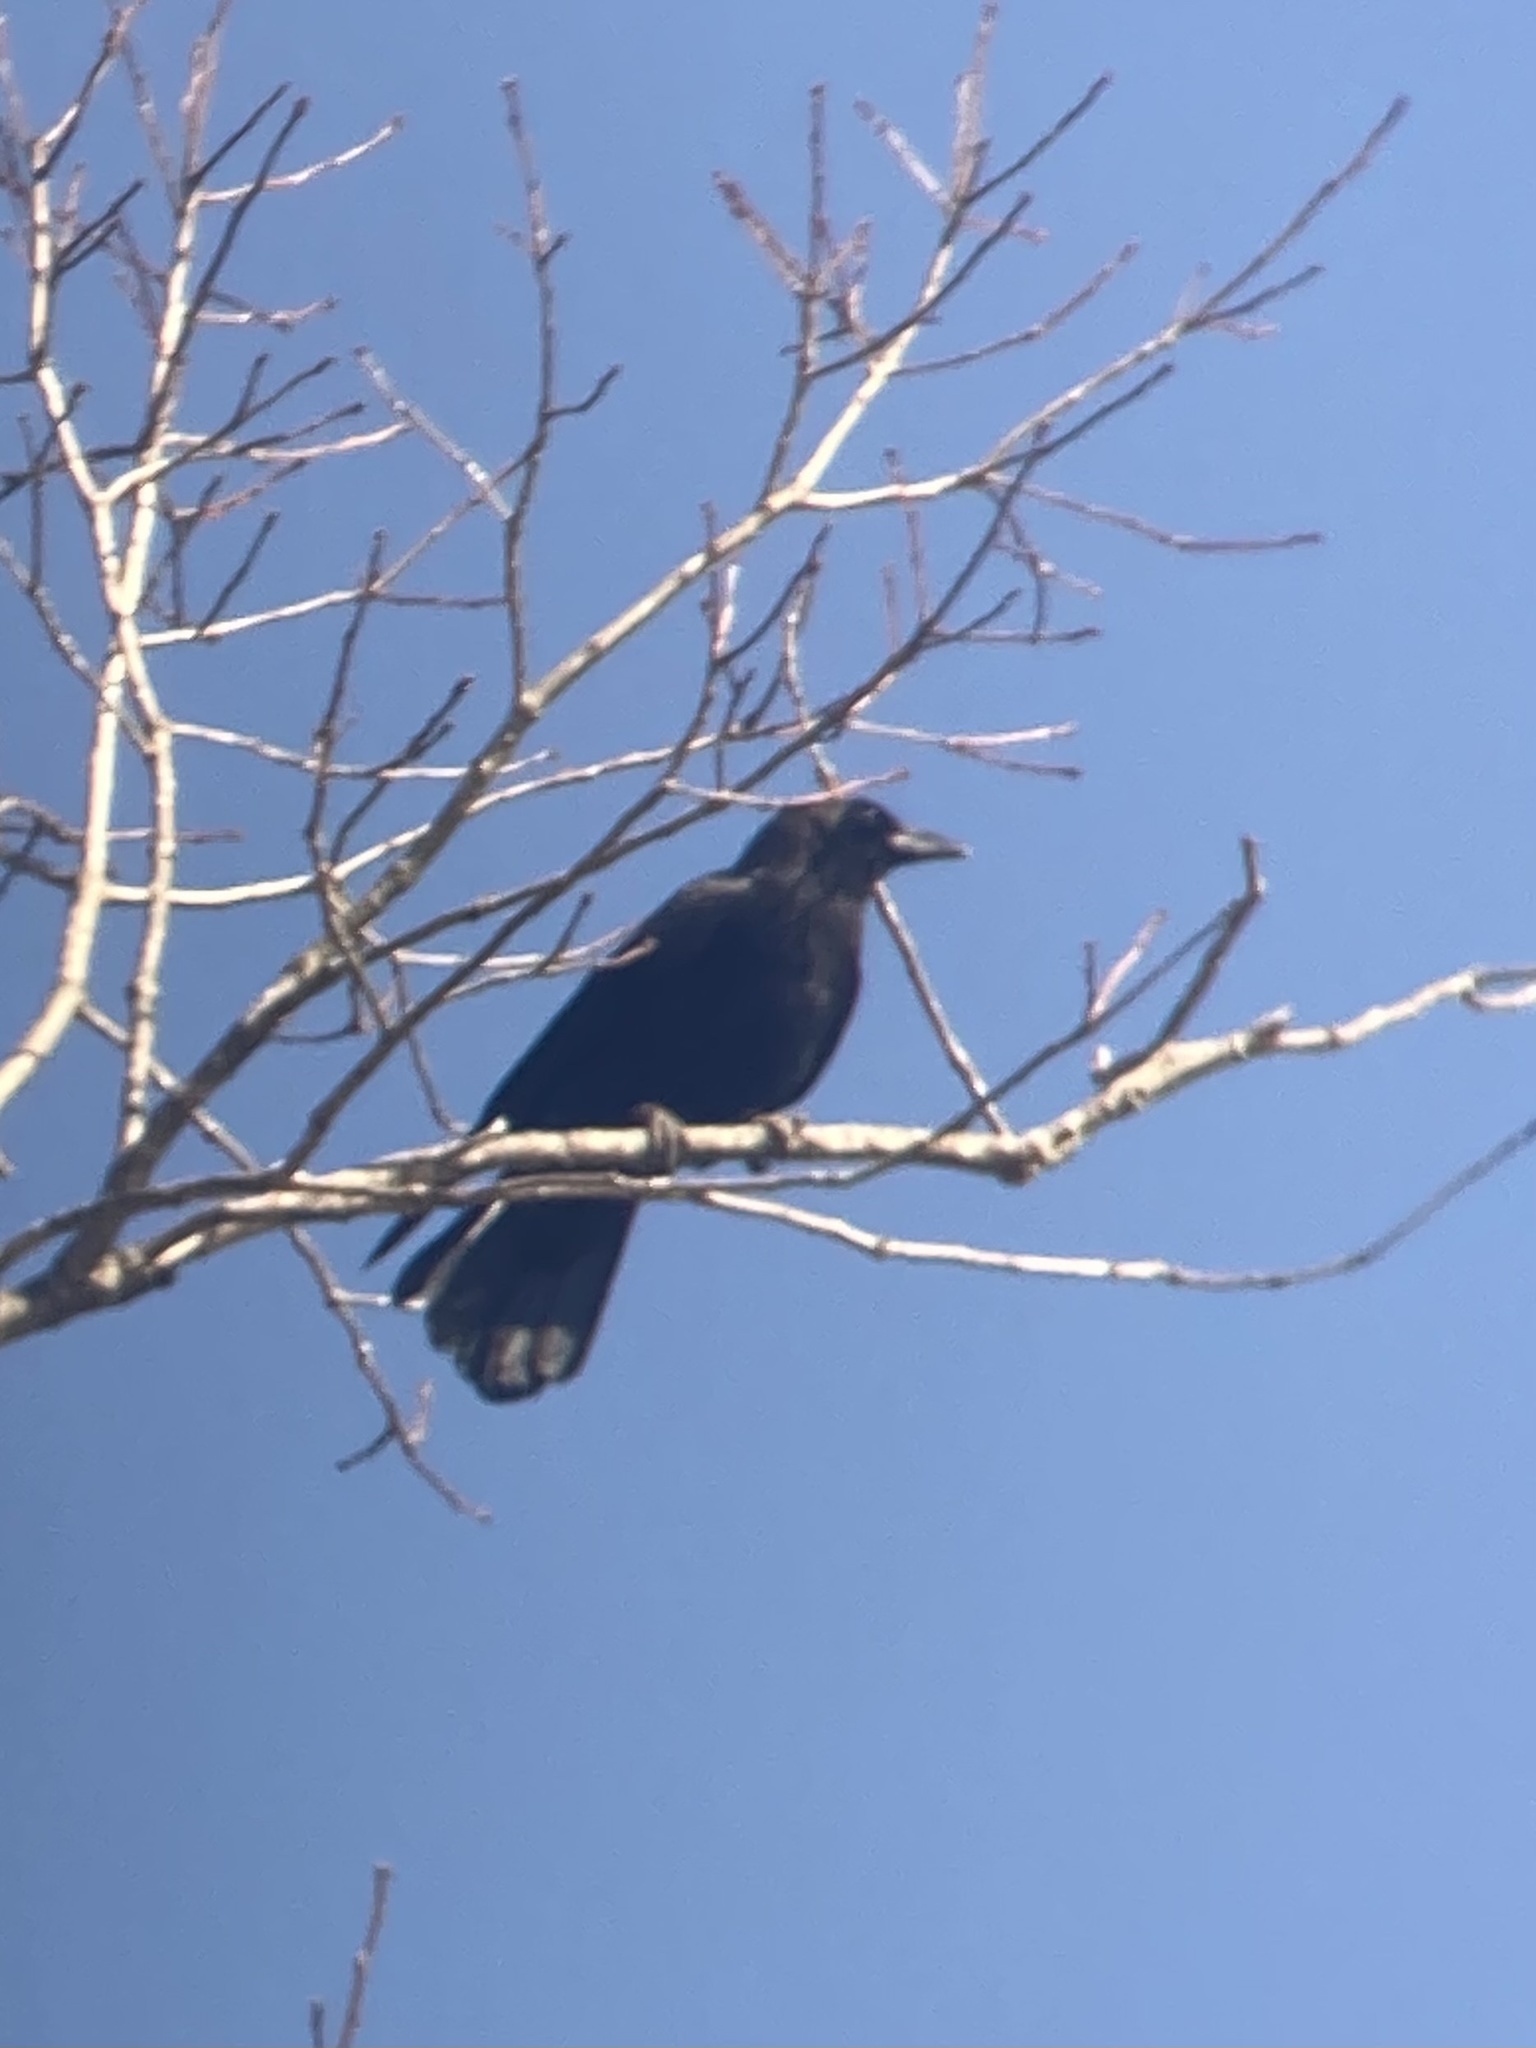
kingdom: Animalia
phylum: Chordata
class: Aves
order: Passeriformes
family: Corvidae
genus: Corvus
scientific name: Corvus brachyrhynchos
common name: American crow
